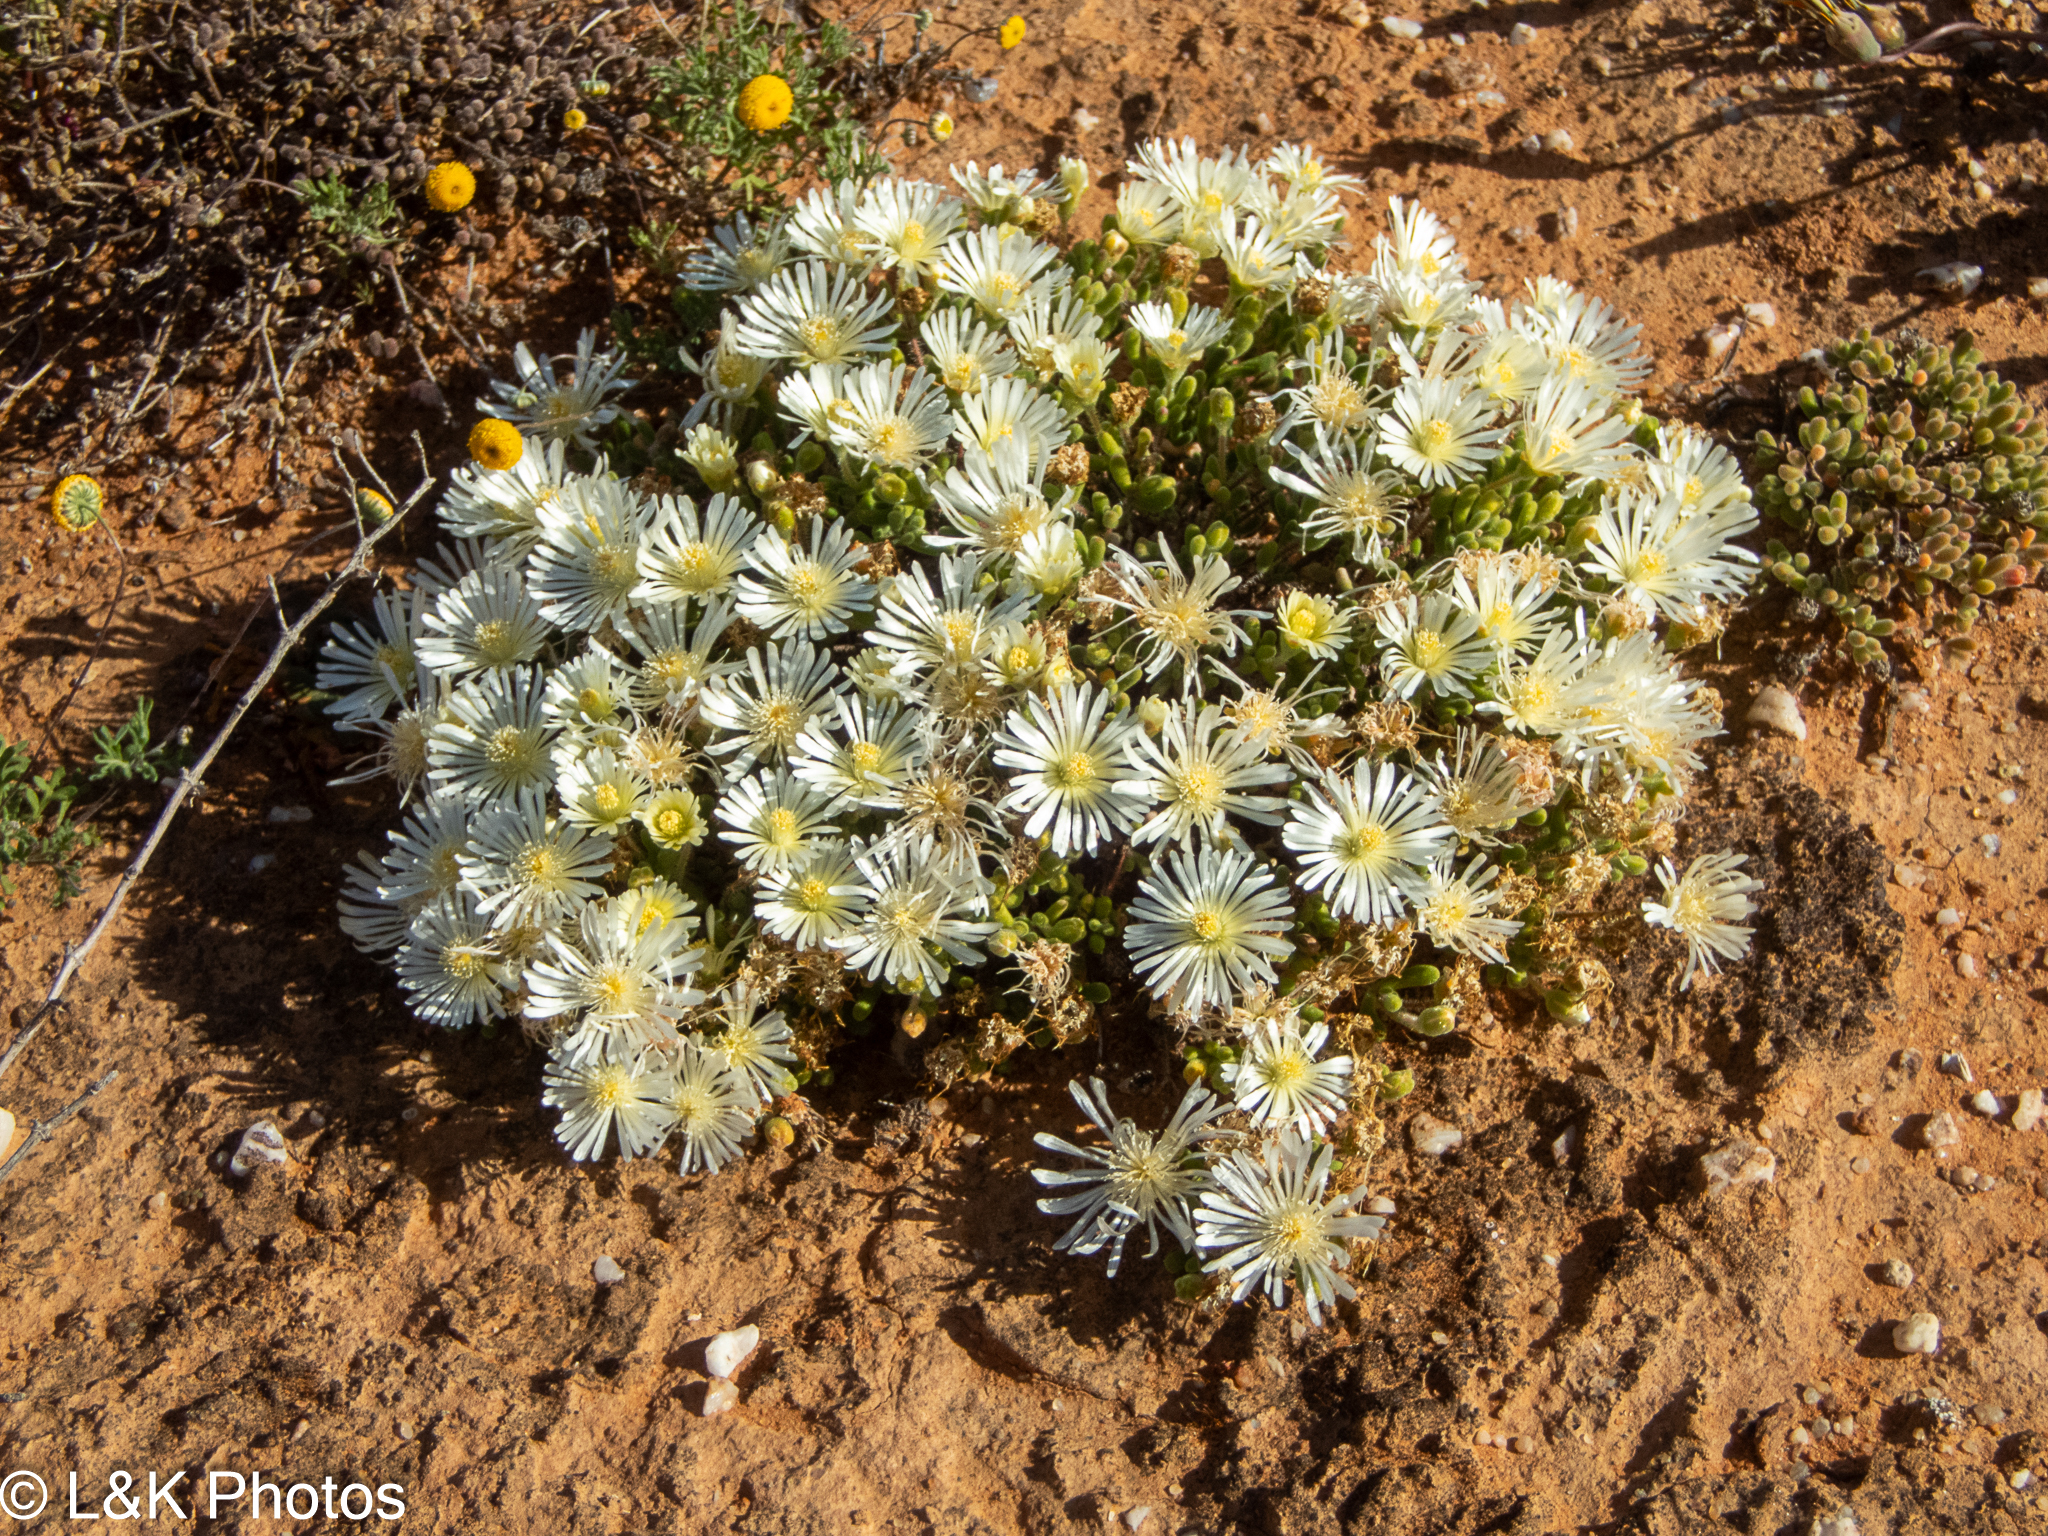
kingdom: Plantae
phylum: Tracheophyta
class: Magnoliopsida
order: Caryophyllales
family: Aizoaceae
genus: Drosanthemum
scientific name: Drosanthemum schoenlandianum
